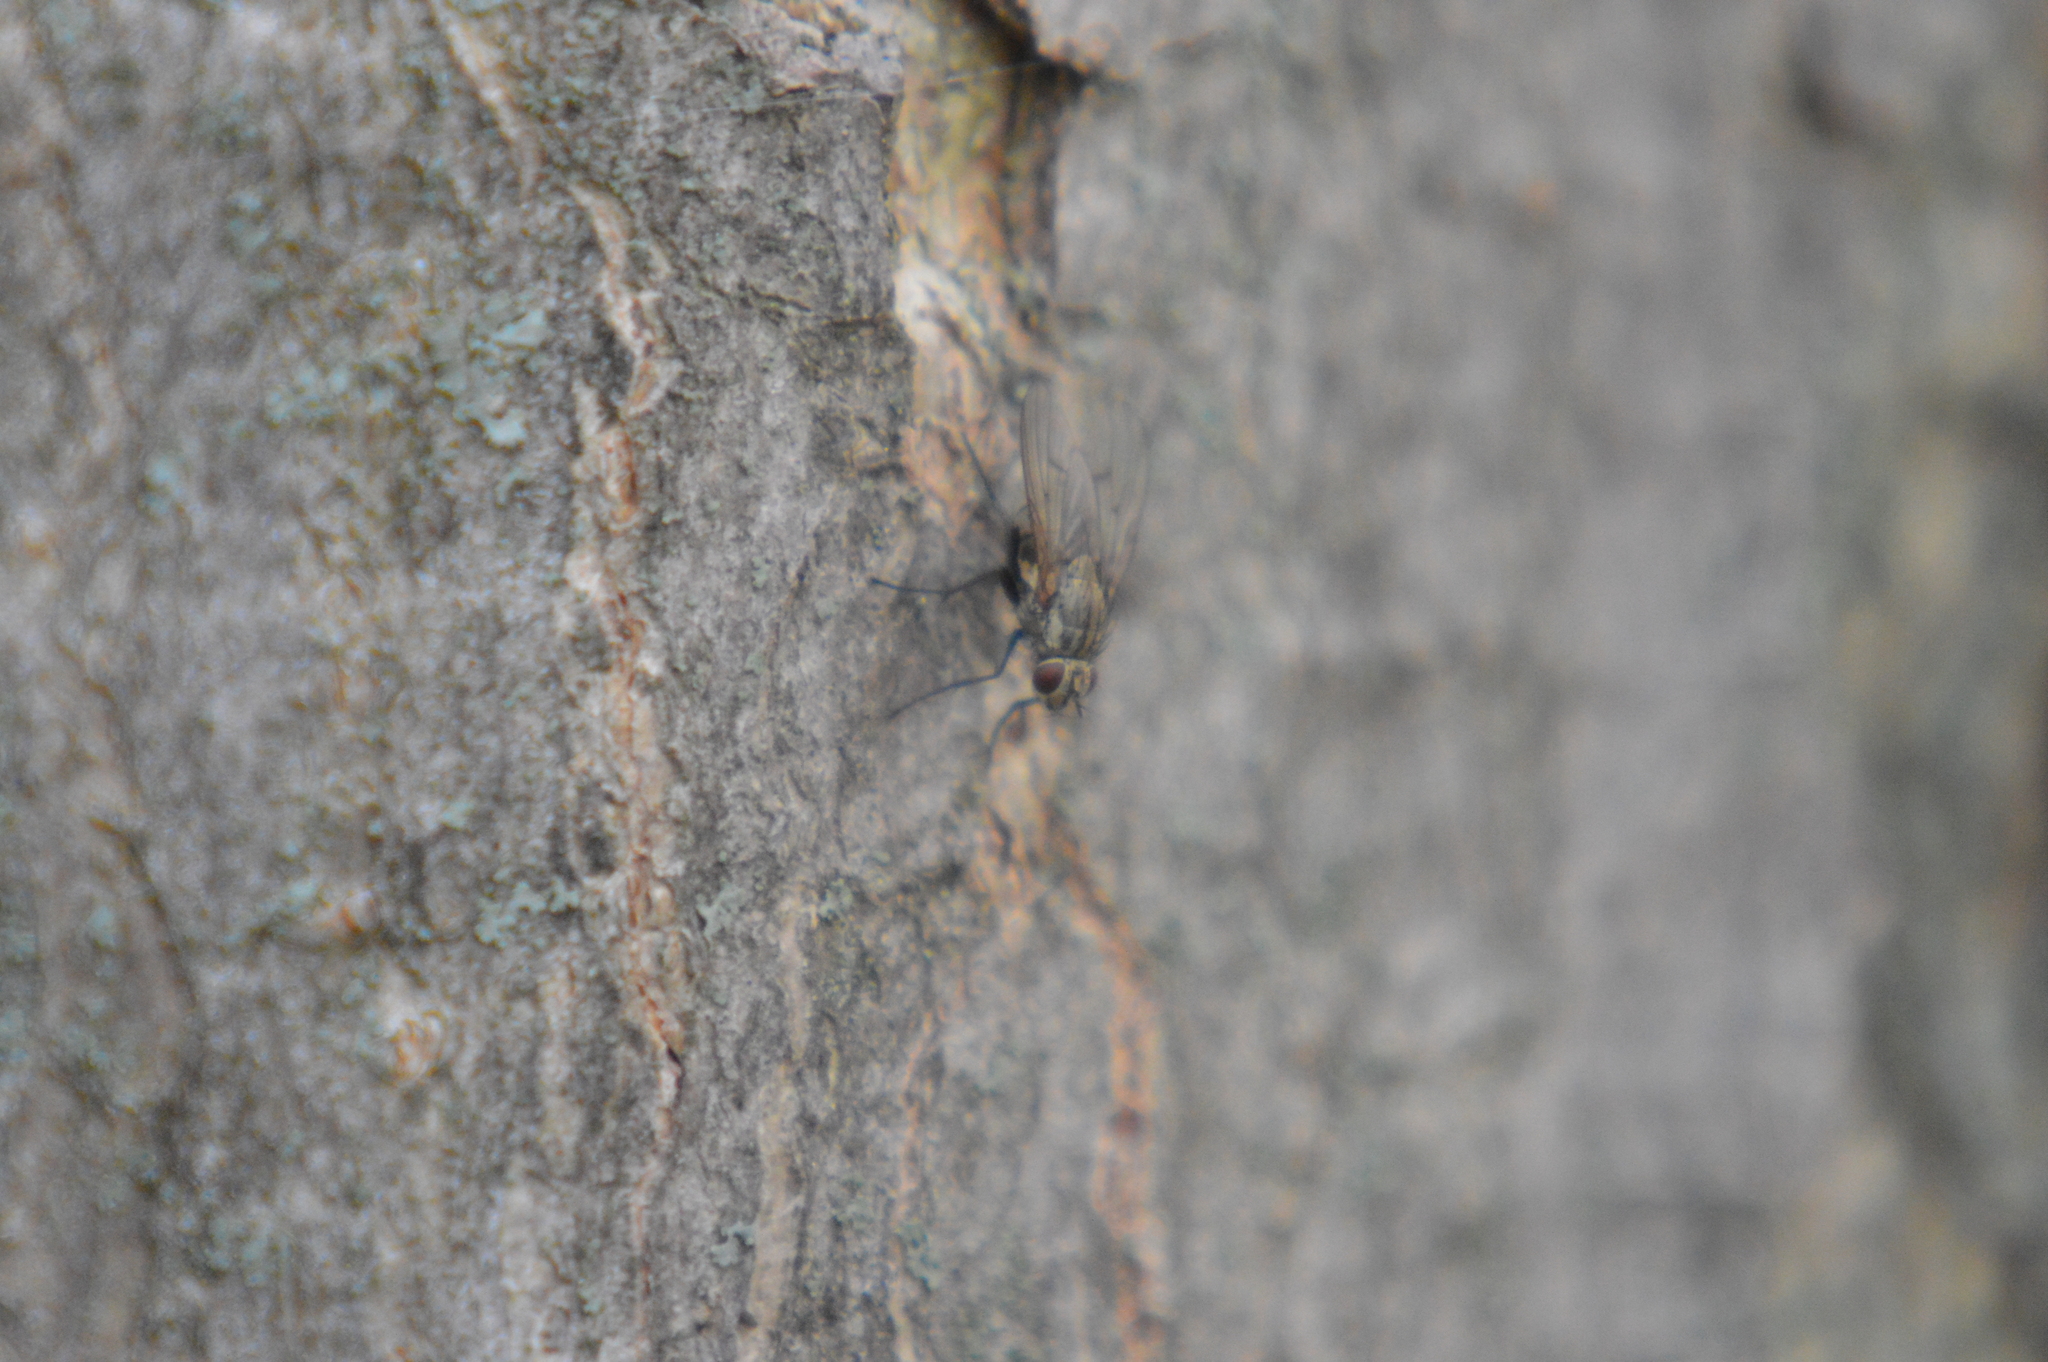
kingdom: Animalia
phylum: Arthropoda
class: Insecta
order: Diptera
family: Muscidae
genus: Helina
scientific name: Helina
